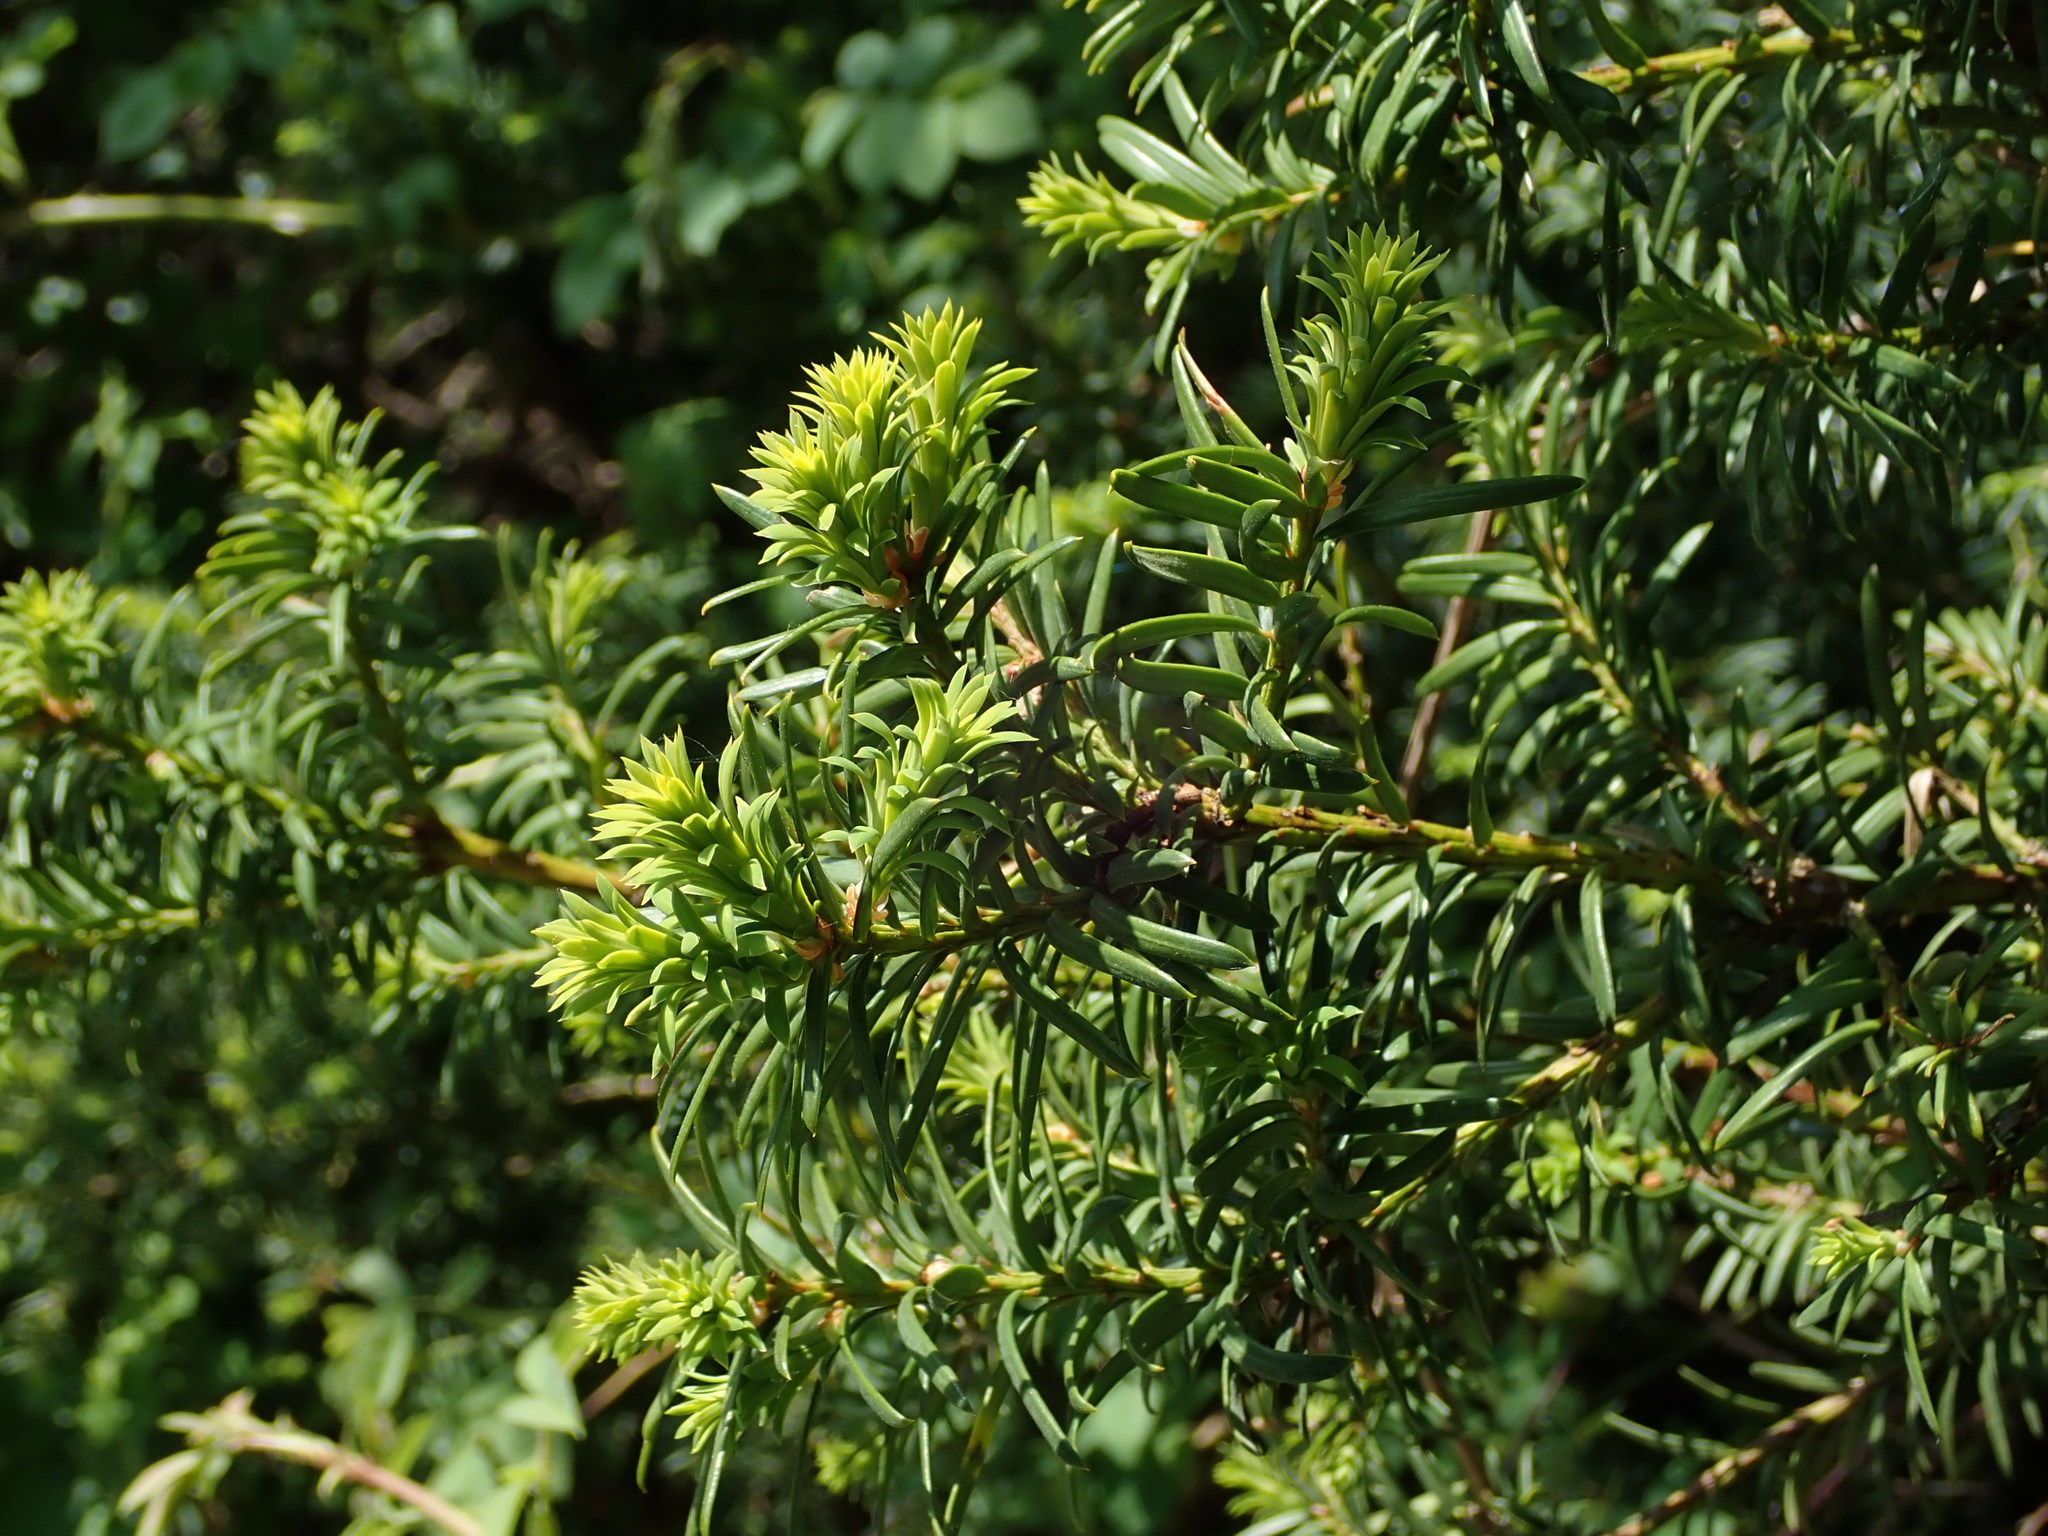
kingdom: Plantae
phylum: Tracheophyta
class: Pinopsida
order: Pinales
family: Taxaceae
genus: Taxus
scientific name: Taxus baccata
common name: Yew
